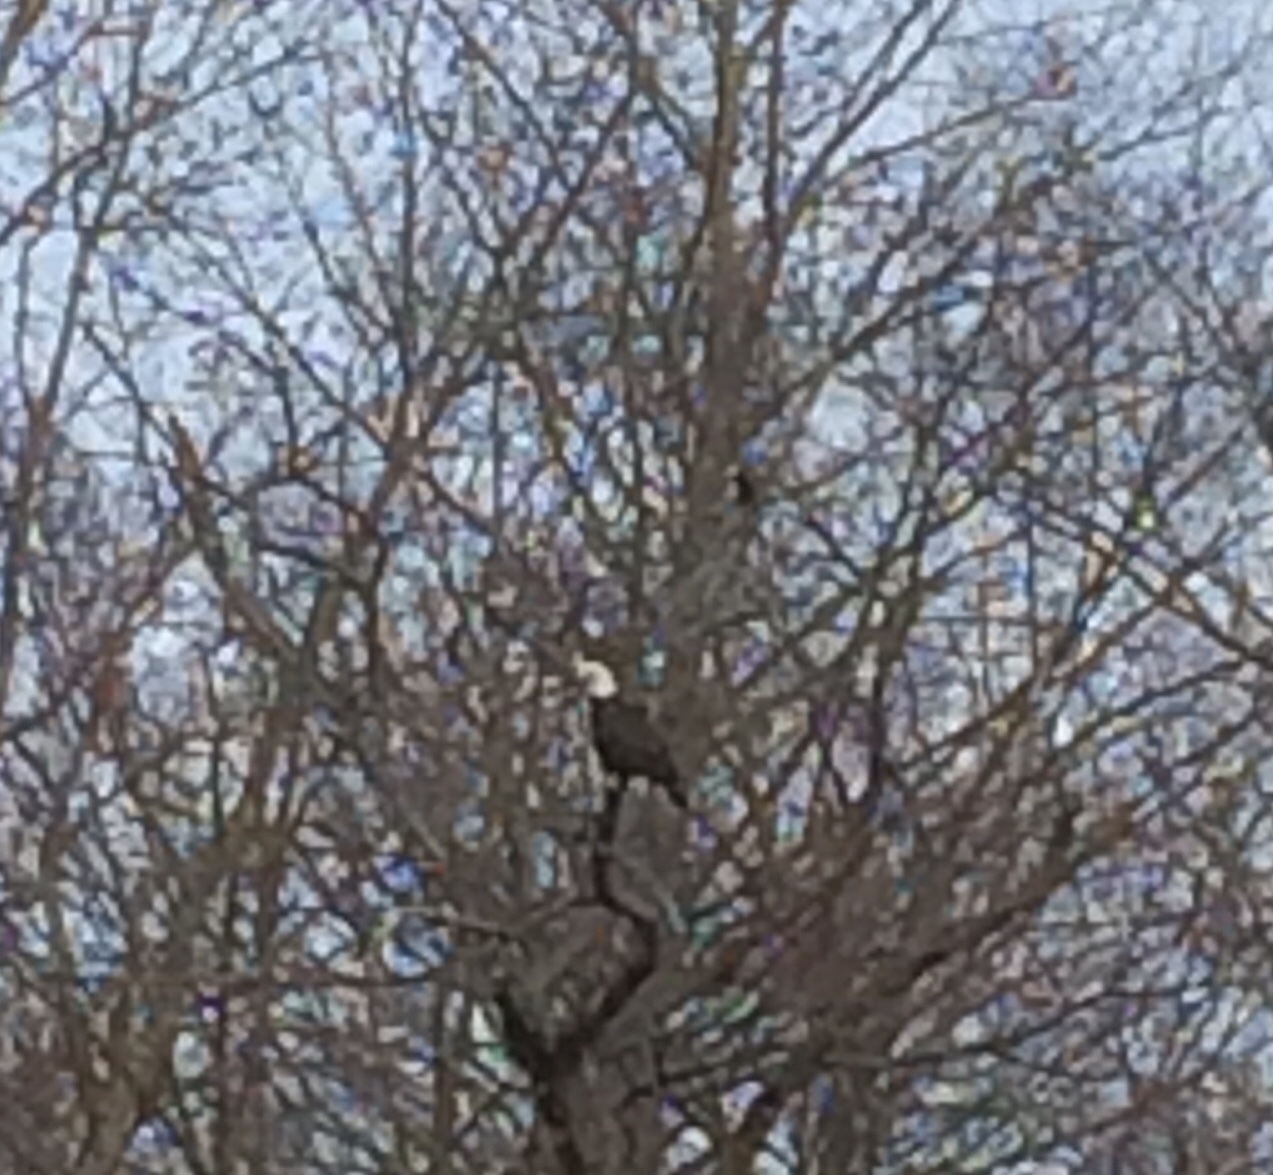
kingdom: Animalia
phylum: Chordata
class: Aves
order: Accipitriformes
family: Accipitridae
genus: Haliaeetus
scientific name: Haliaeetus leucocephalus
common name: Bald eagle
